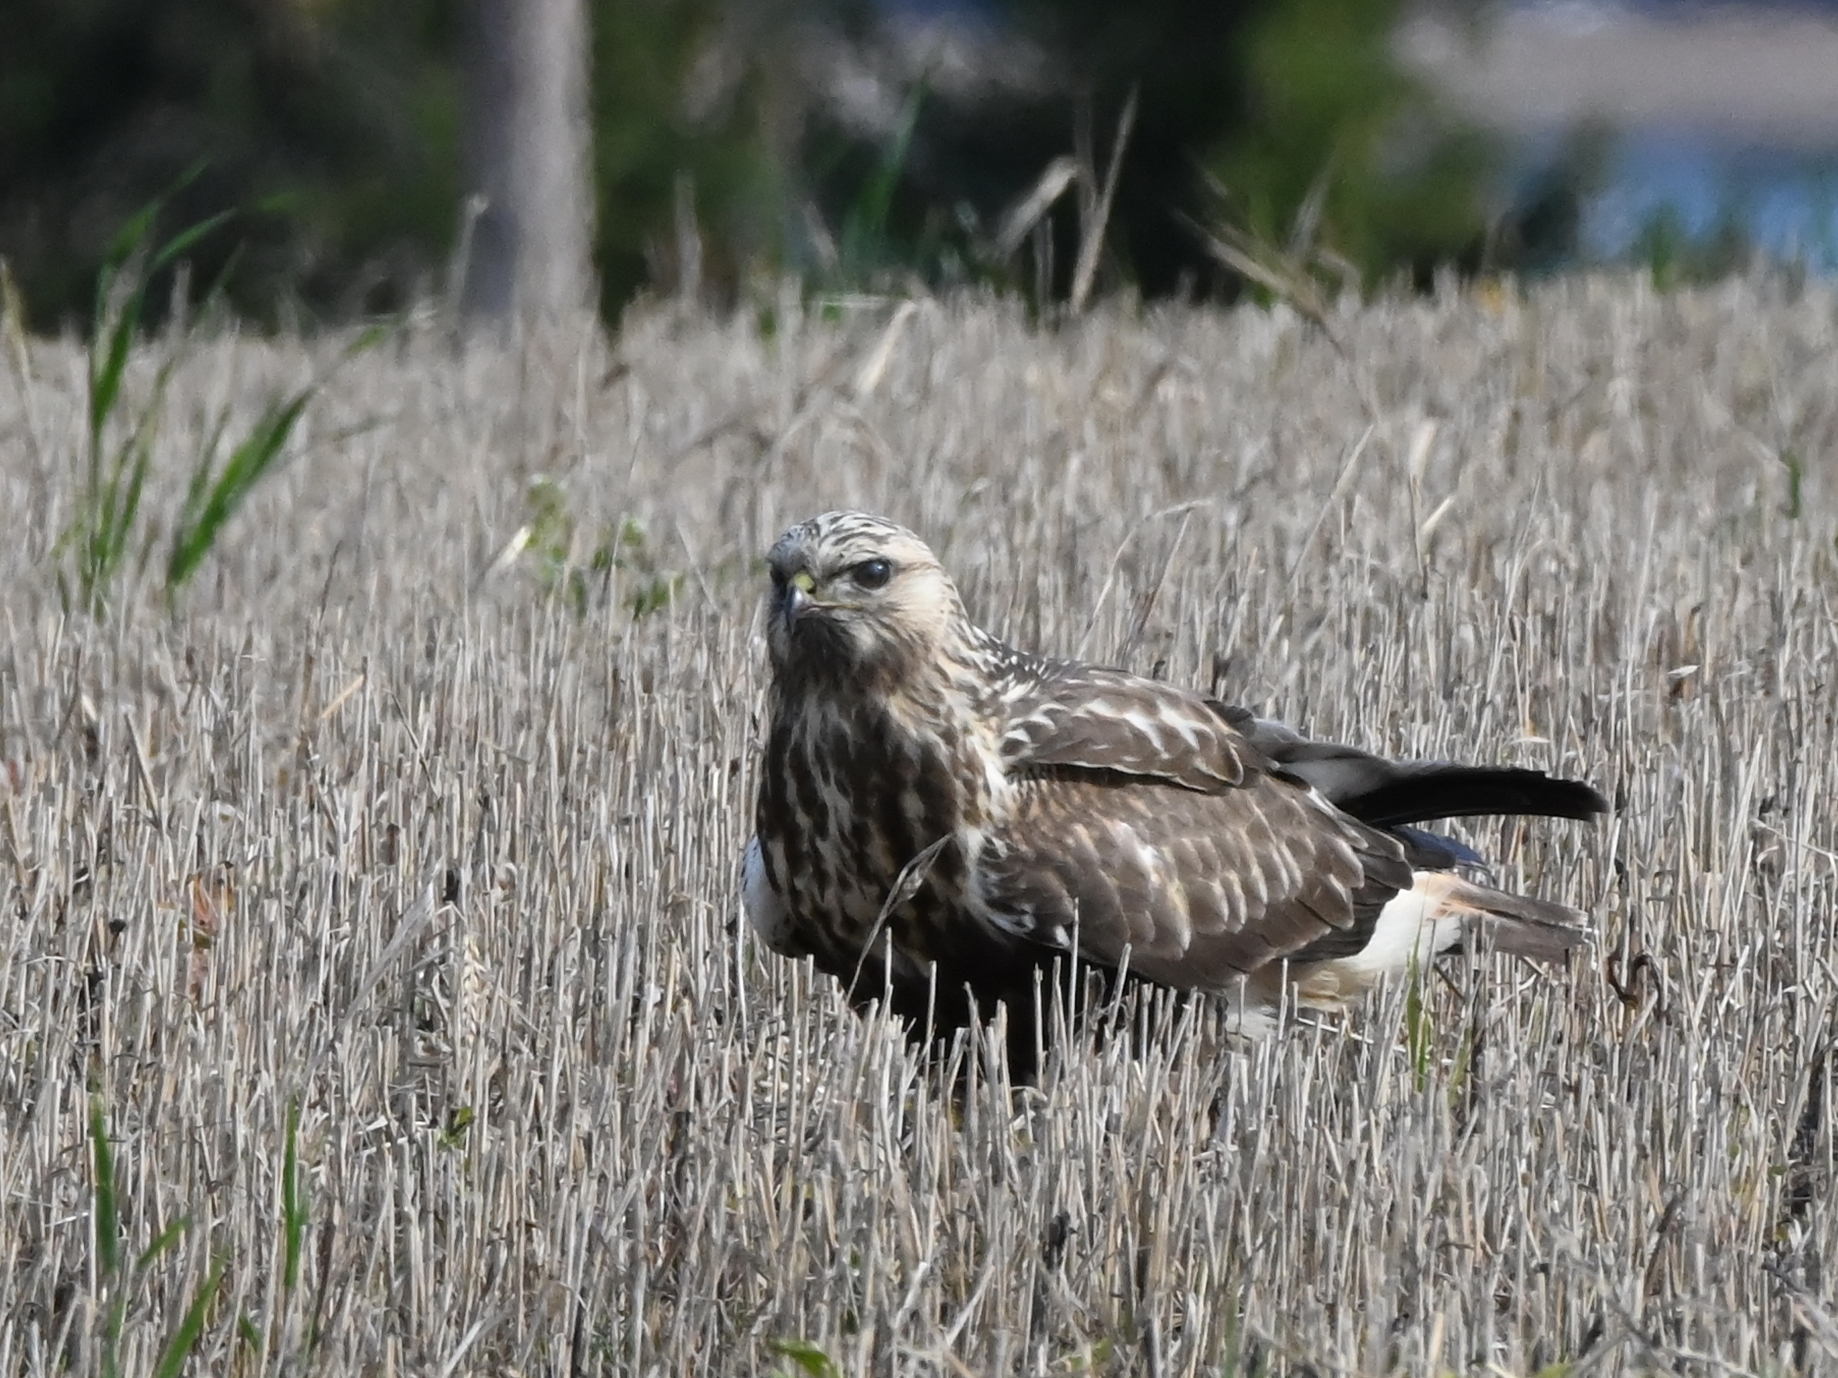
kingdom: Animalia
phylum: Chordata
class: Aves
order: Accipitriformes
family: Accipitridae
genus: Buteo
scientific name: Buteo lagopus
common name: Rough-legged buzzard
